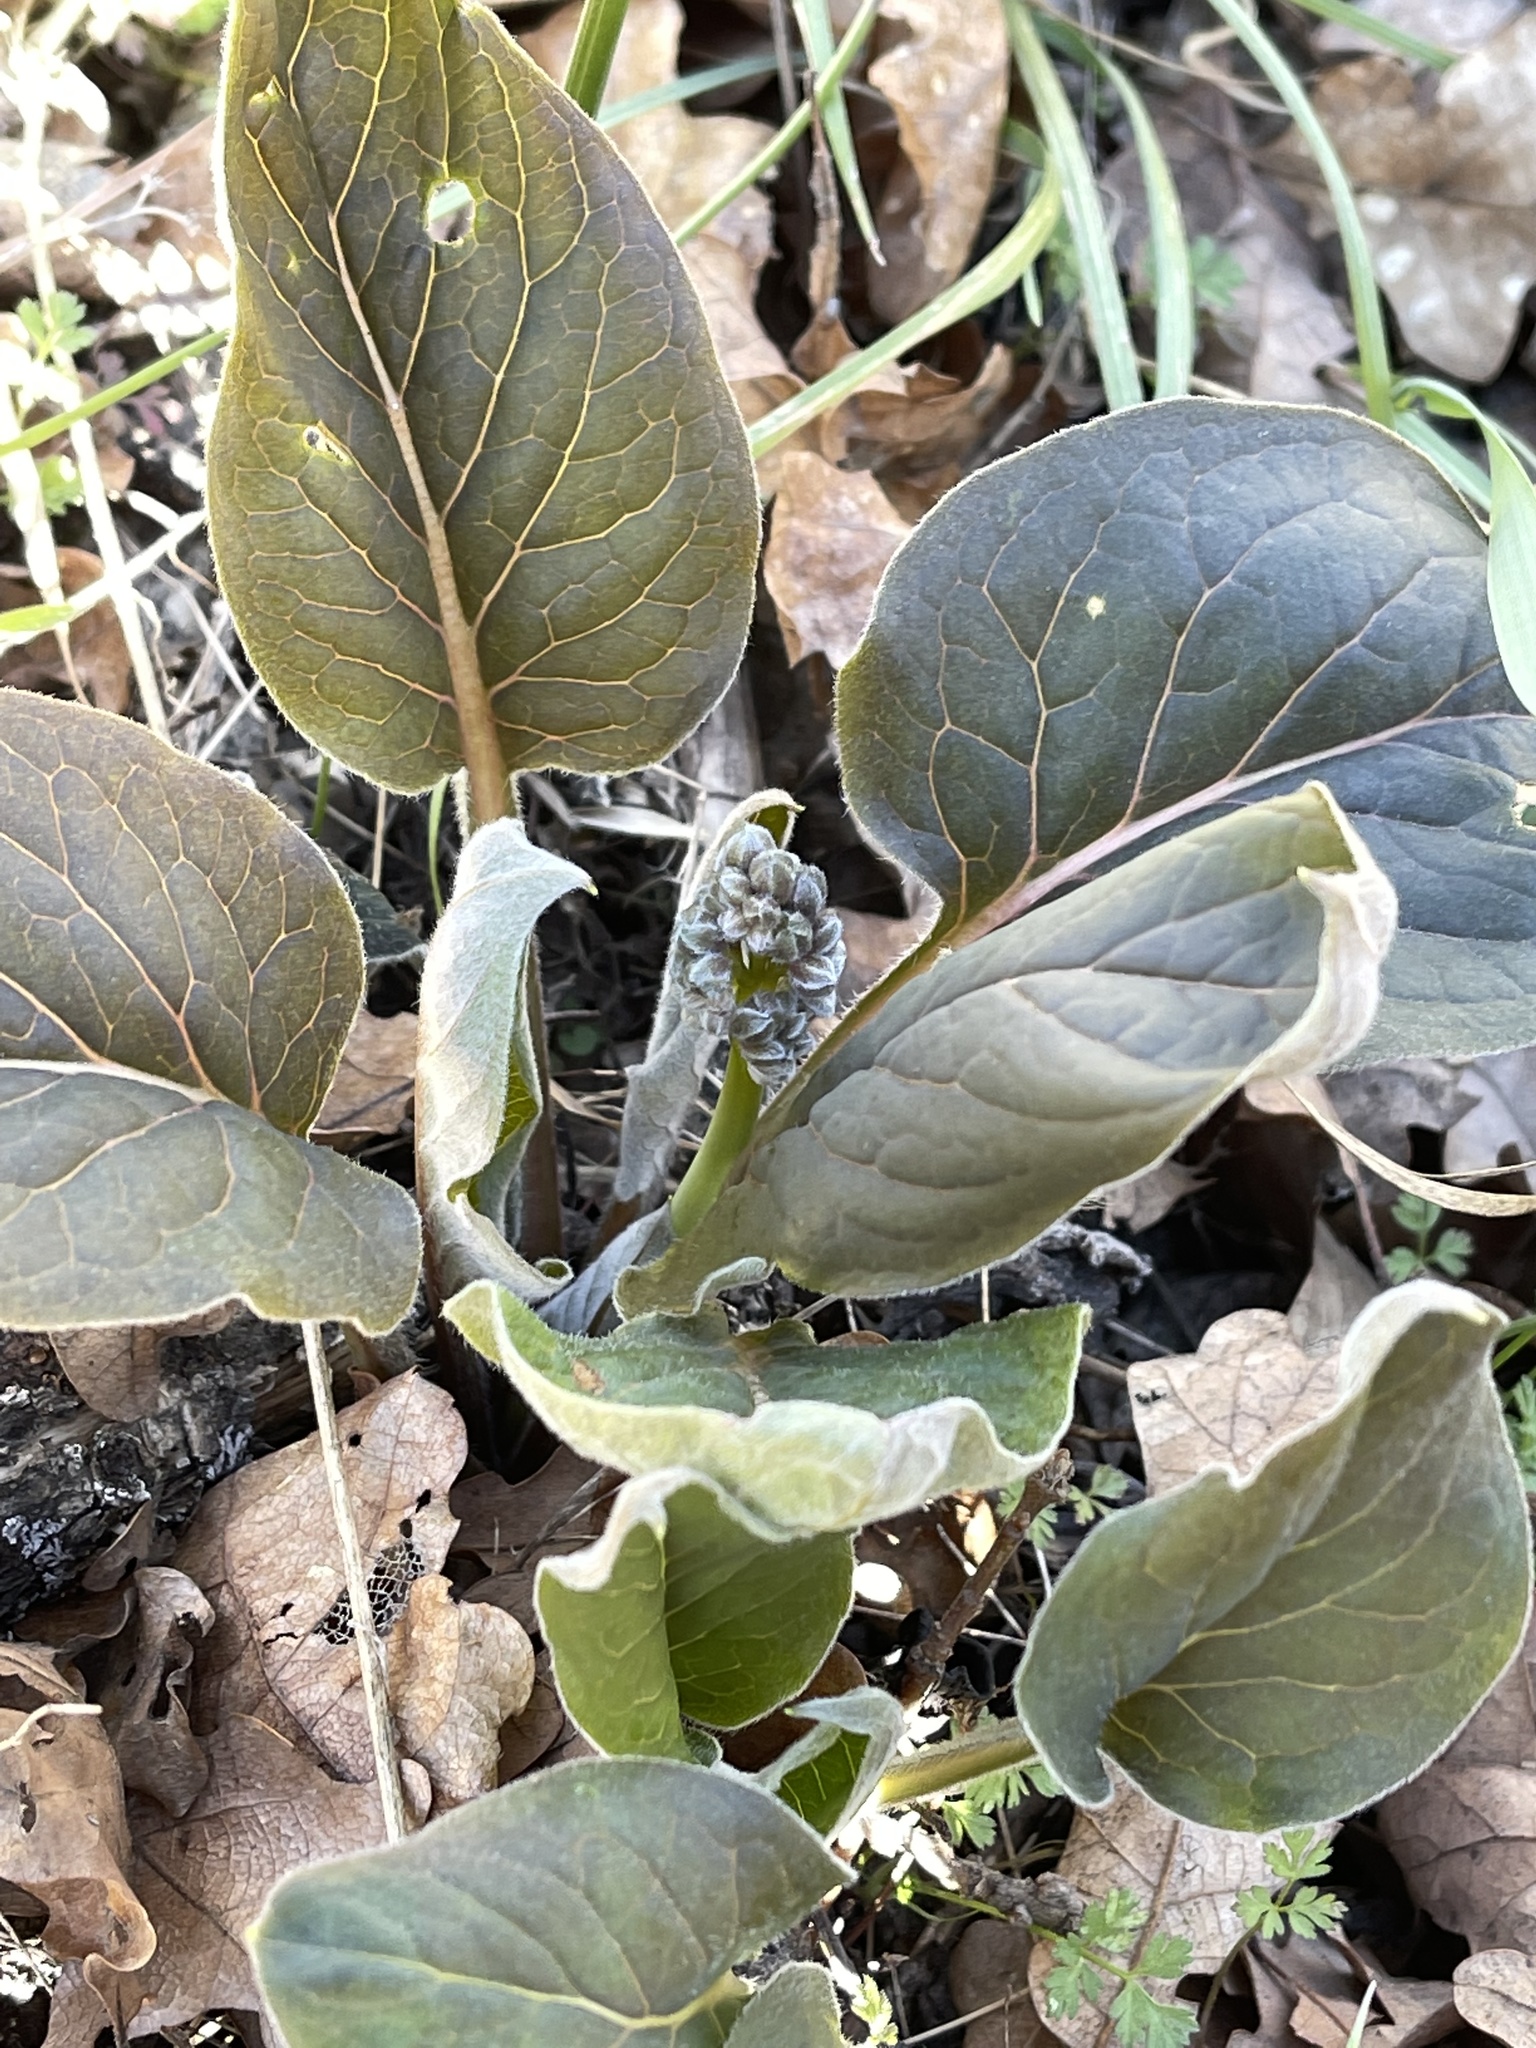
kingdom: Plantae
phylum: Tracheophyta
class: Magnoliopsida
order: Boraginales
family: Boraginaceae
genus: Adelinia
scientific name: Adelinia grande
